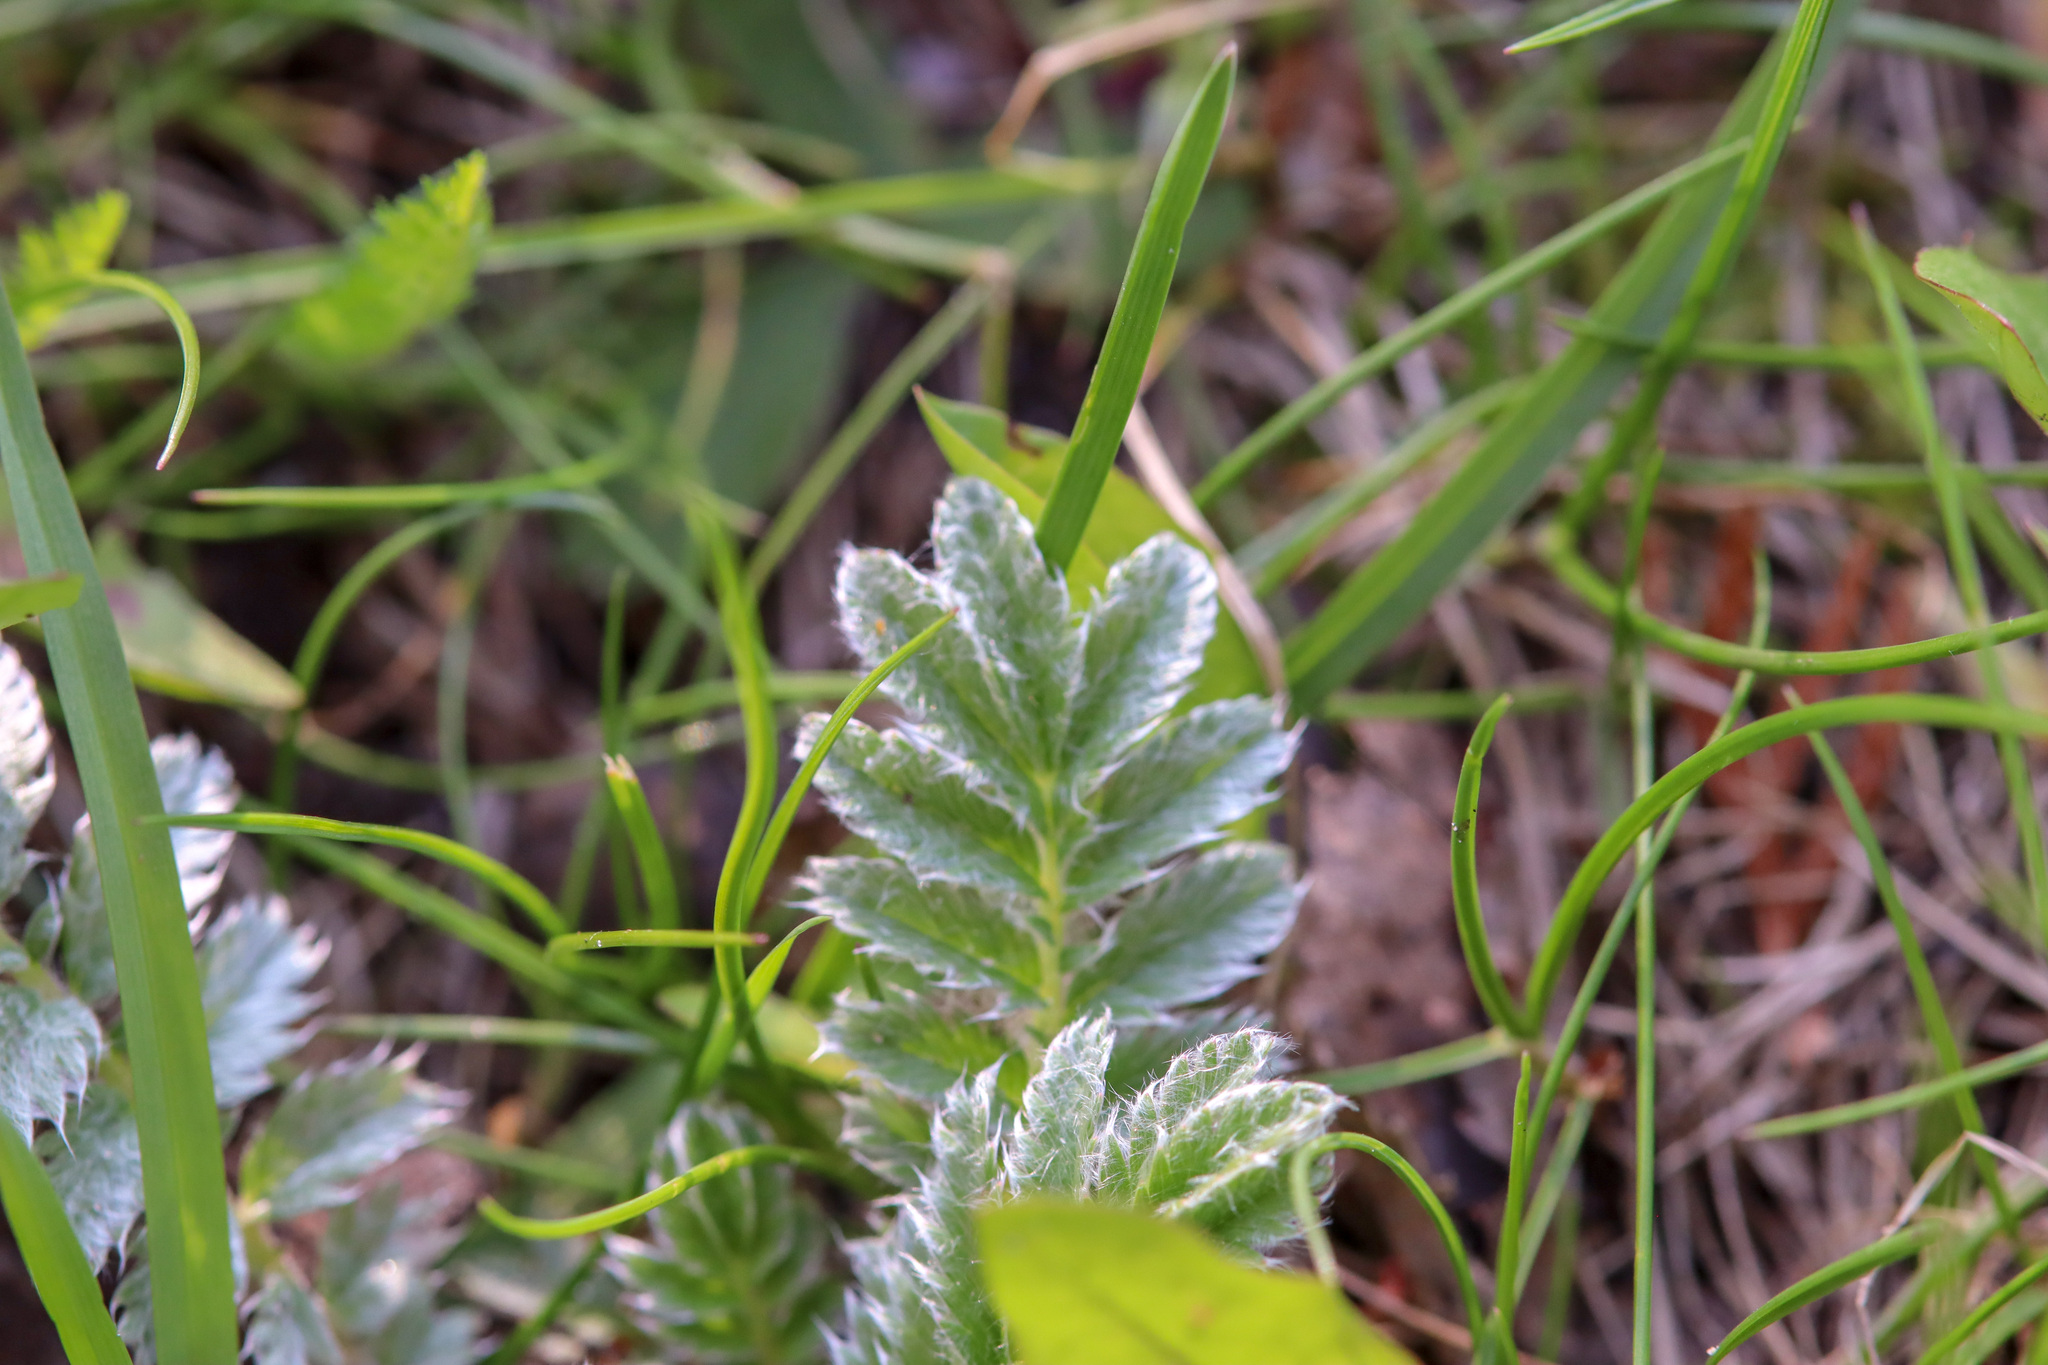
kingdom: Plantae
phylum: Tracheophyta
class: Magnoliopsida
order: Rosales
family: Rosaceae
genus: Argentina
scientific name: Argentina anserina
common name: Common silverweed
